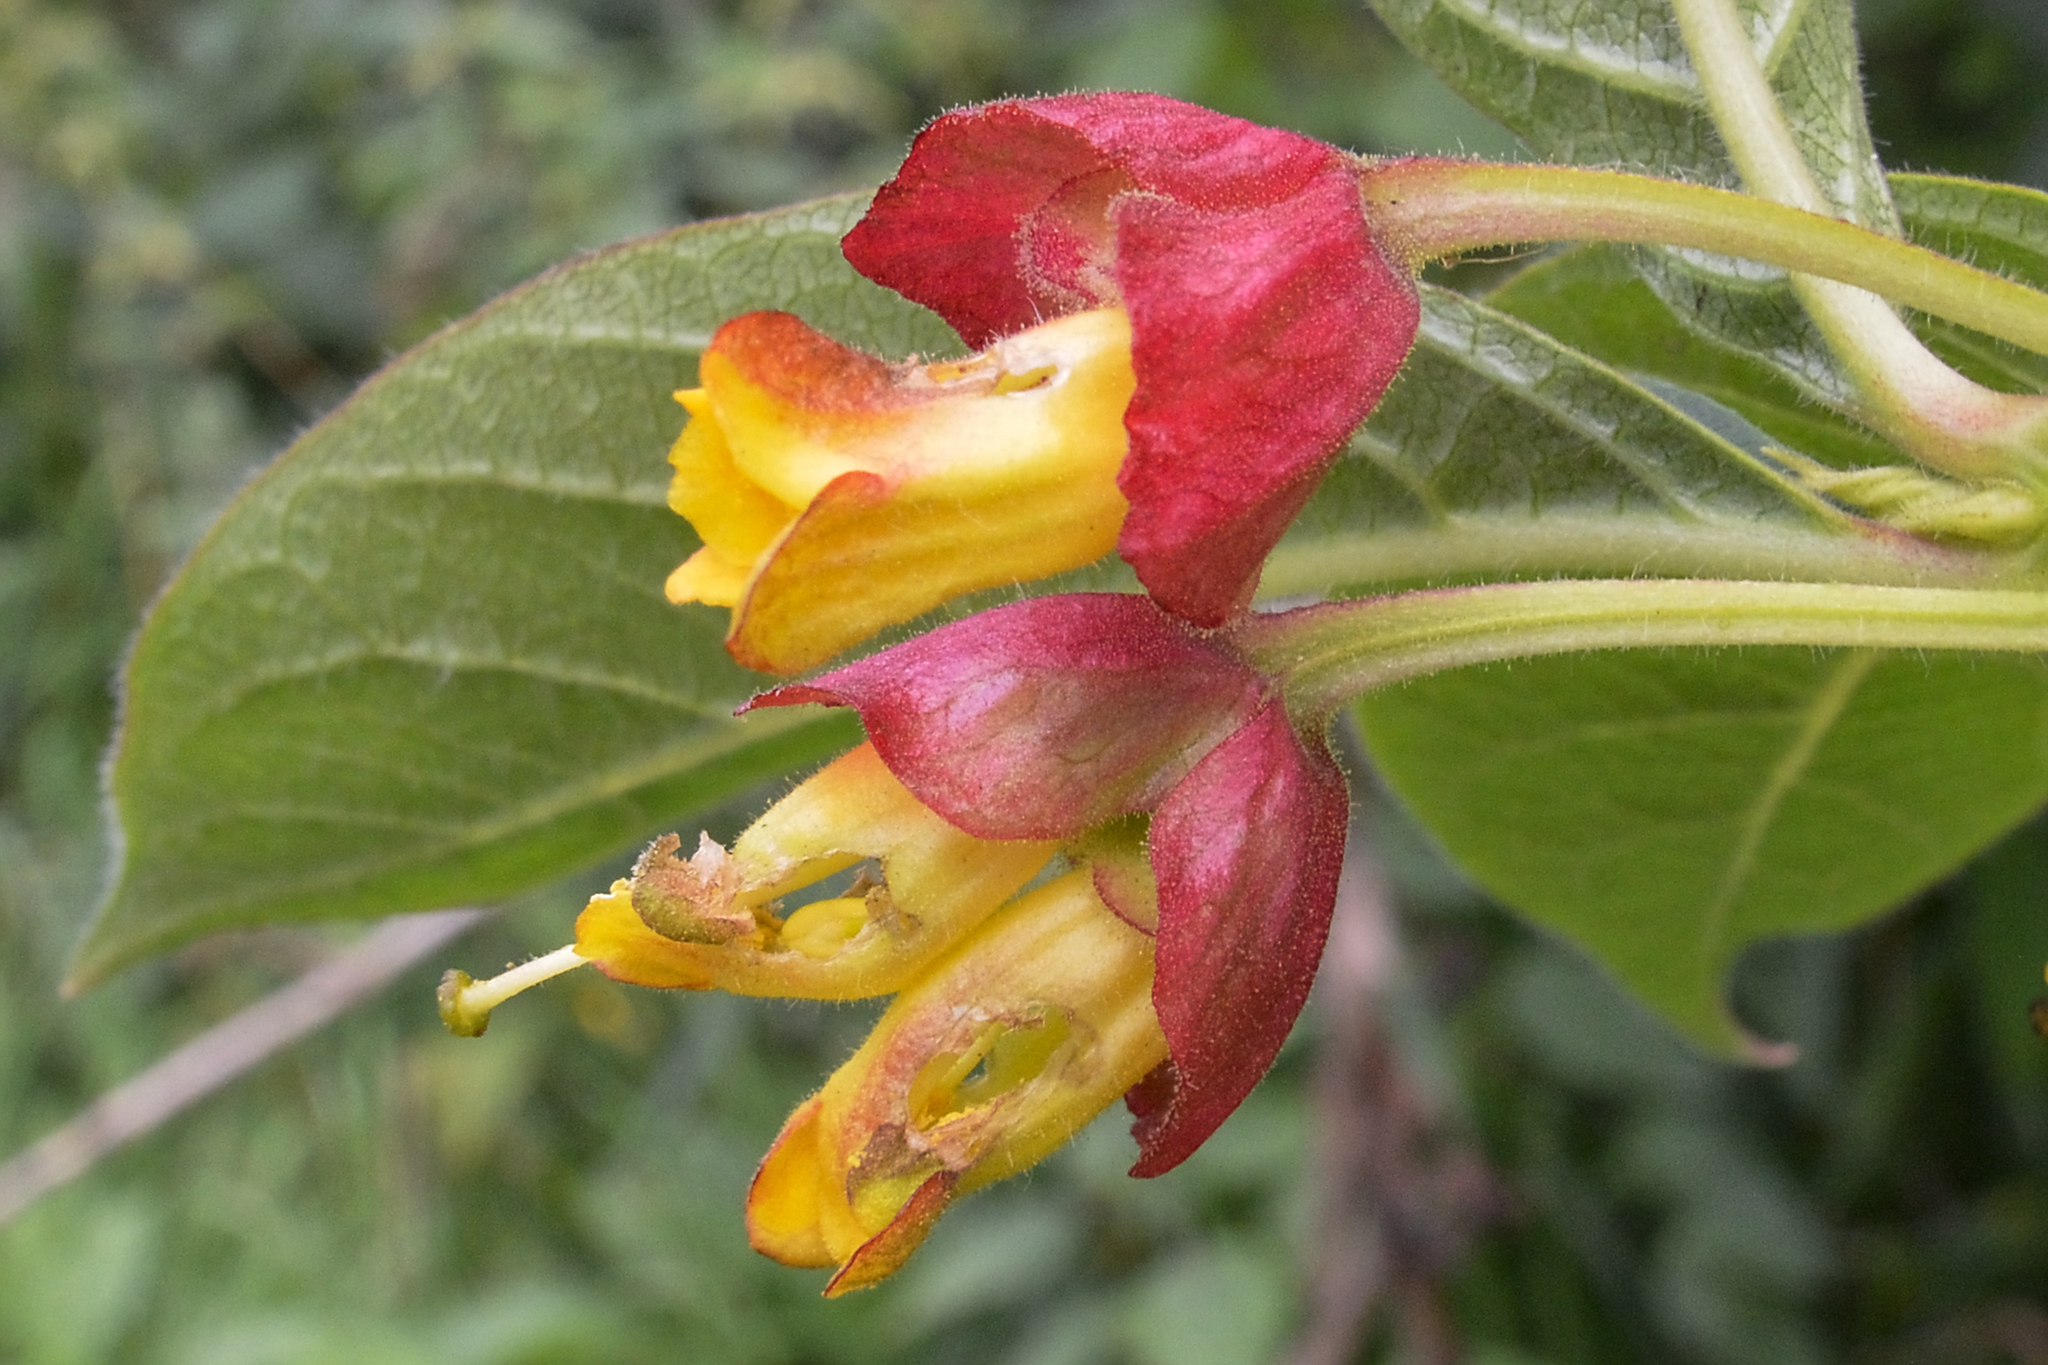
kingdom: Plantae
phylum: Tracheophyta
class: Magnoliopsida
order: Dipsacales
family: Caprifoliaceae
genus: Lonicera
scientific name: Lonicera involucrata
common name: Californian honeysuckle
